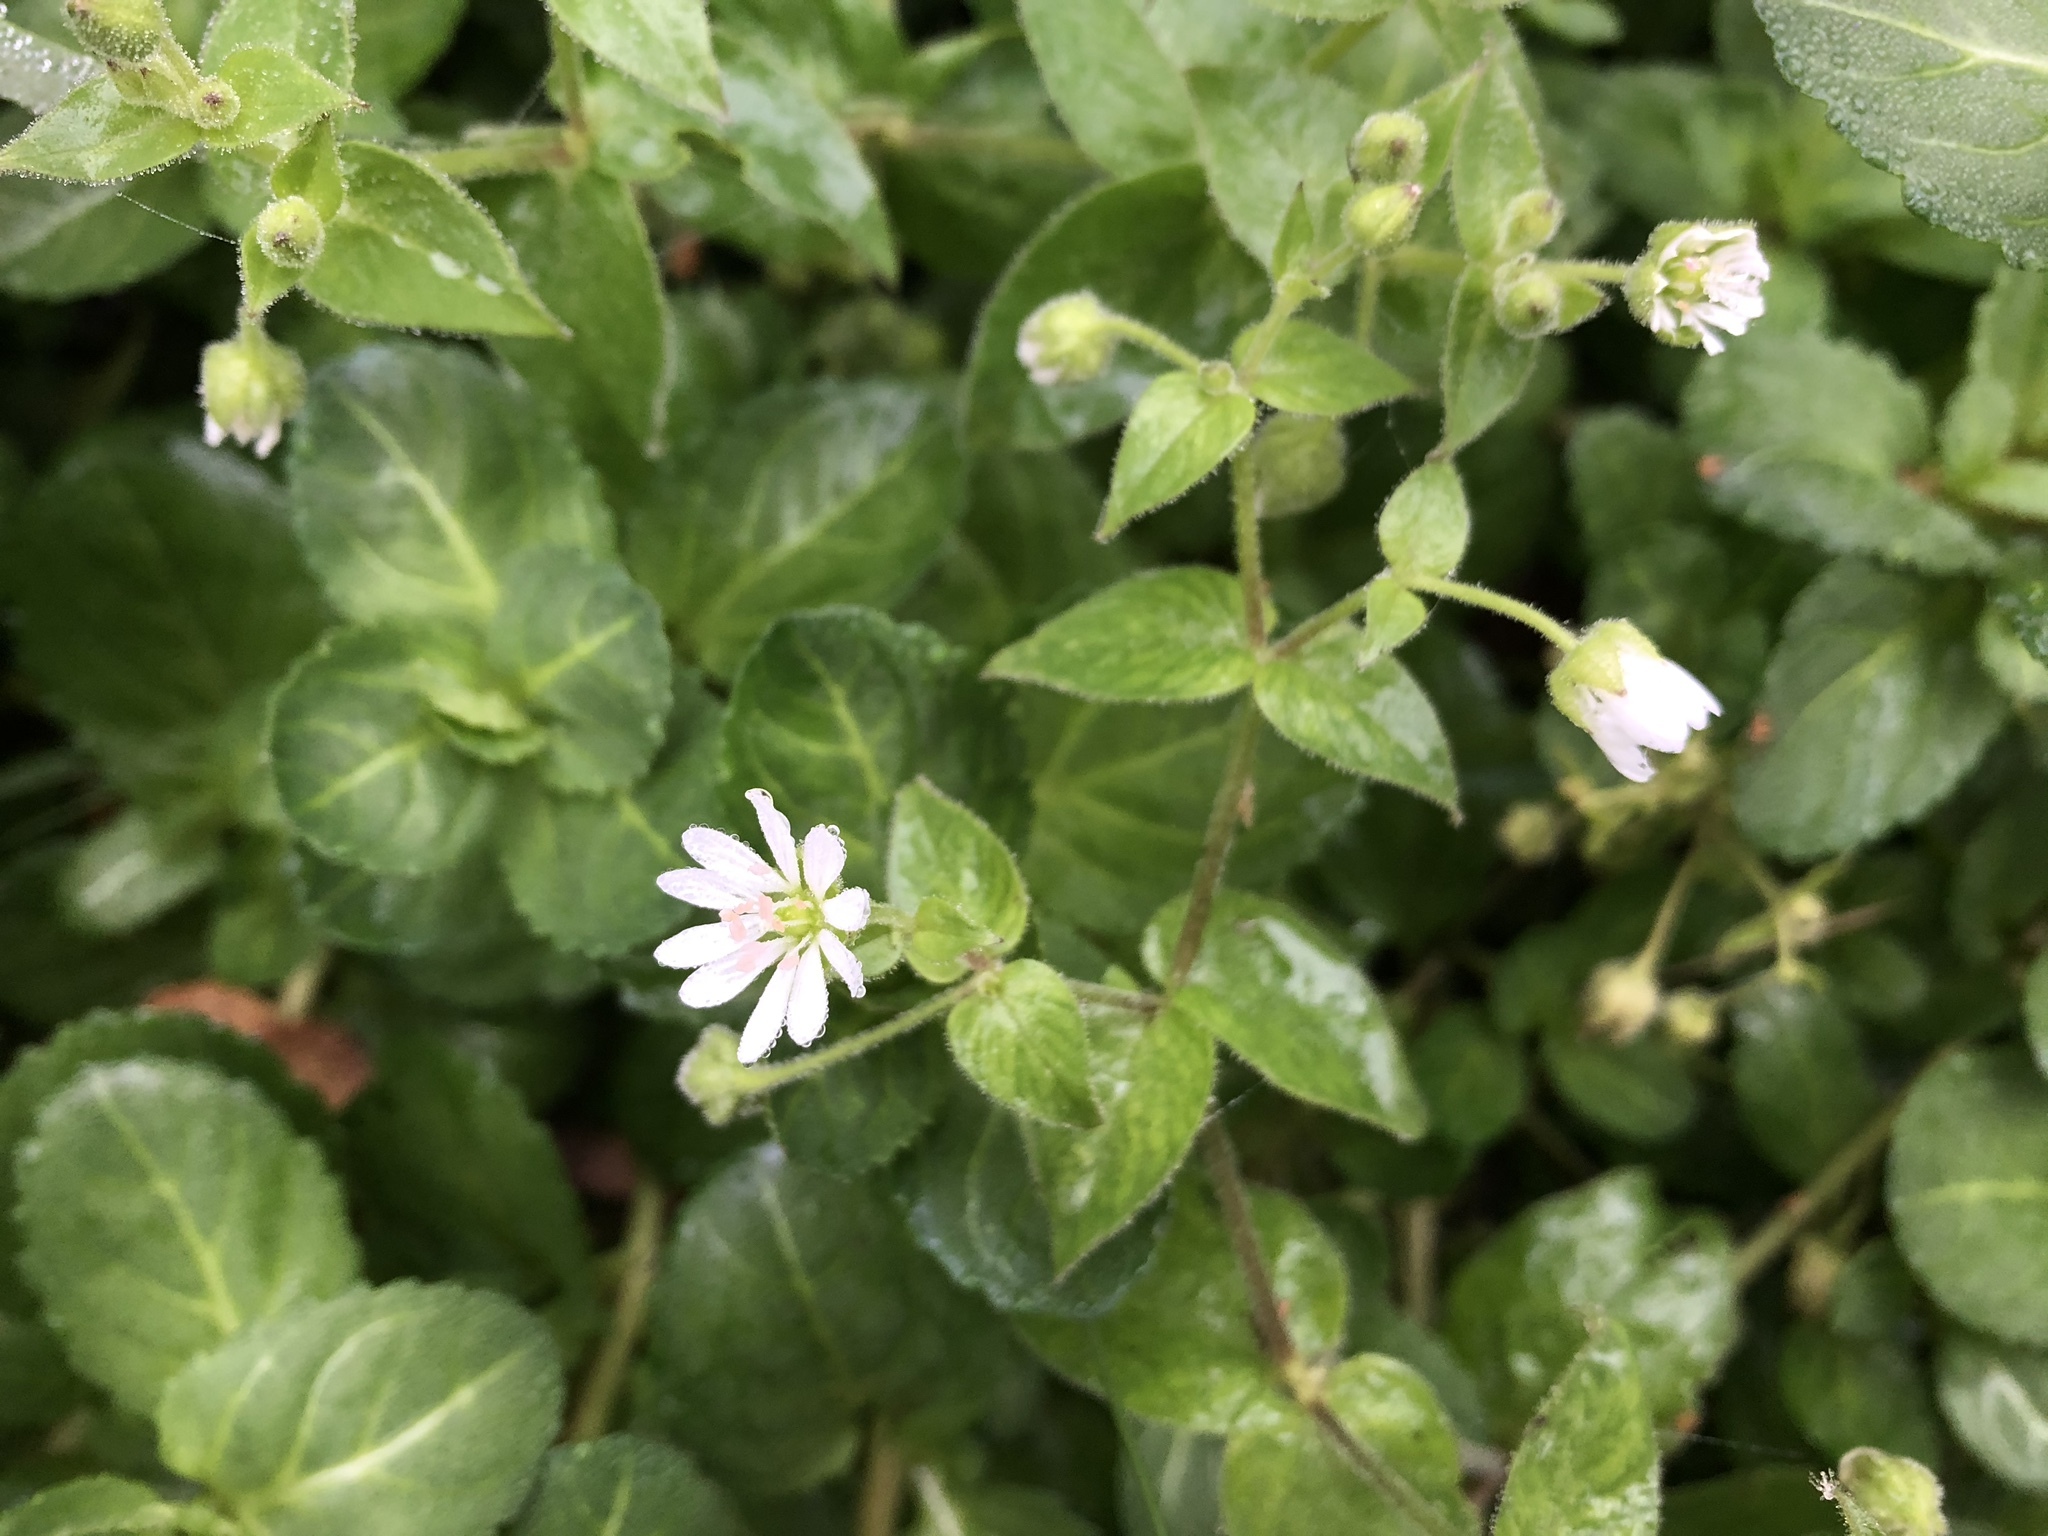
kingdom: Plantae
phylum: Tracheophyta
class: Magnoliopsida
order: Caryophyllales
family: Caryophyllaceae
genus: Stellaria
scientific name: Stellaria aquatica
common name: Water chickweed
